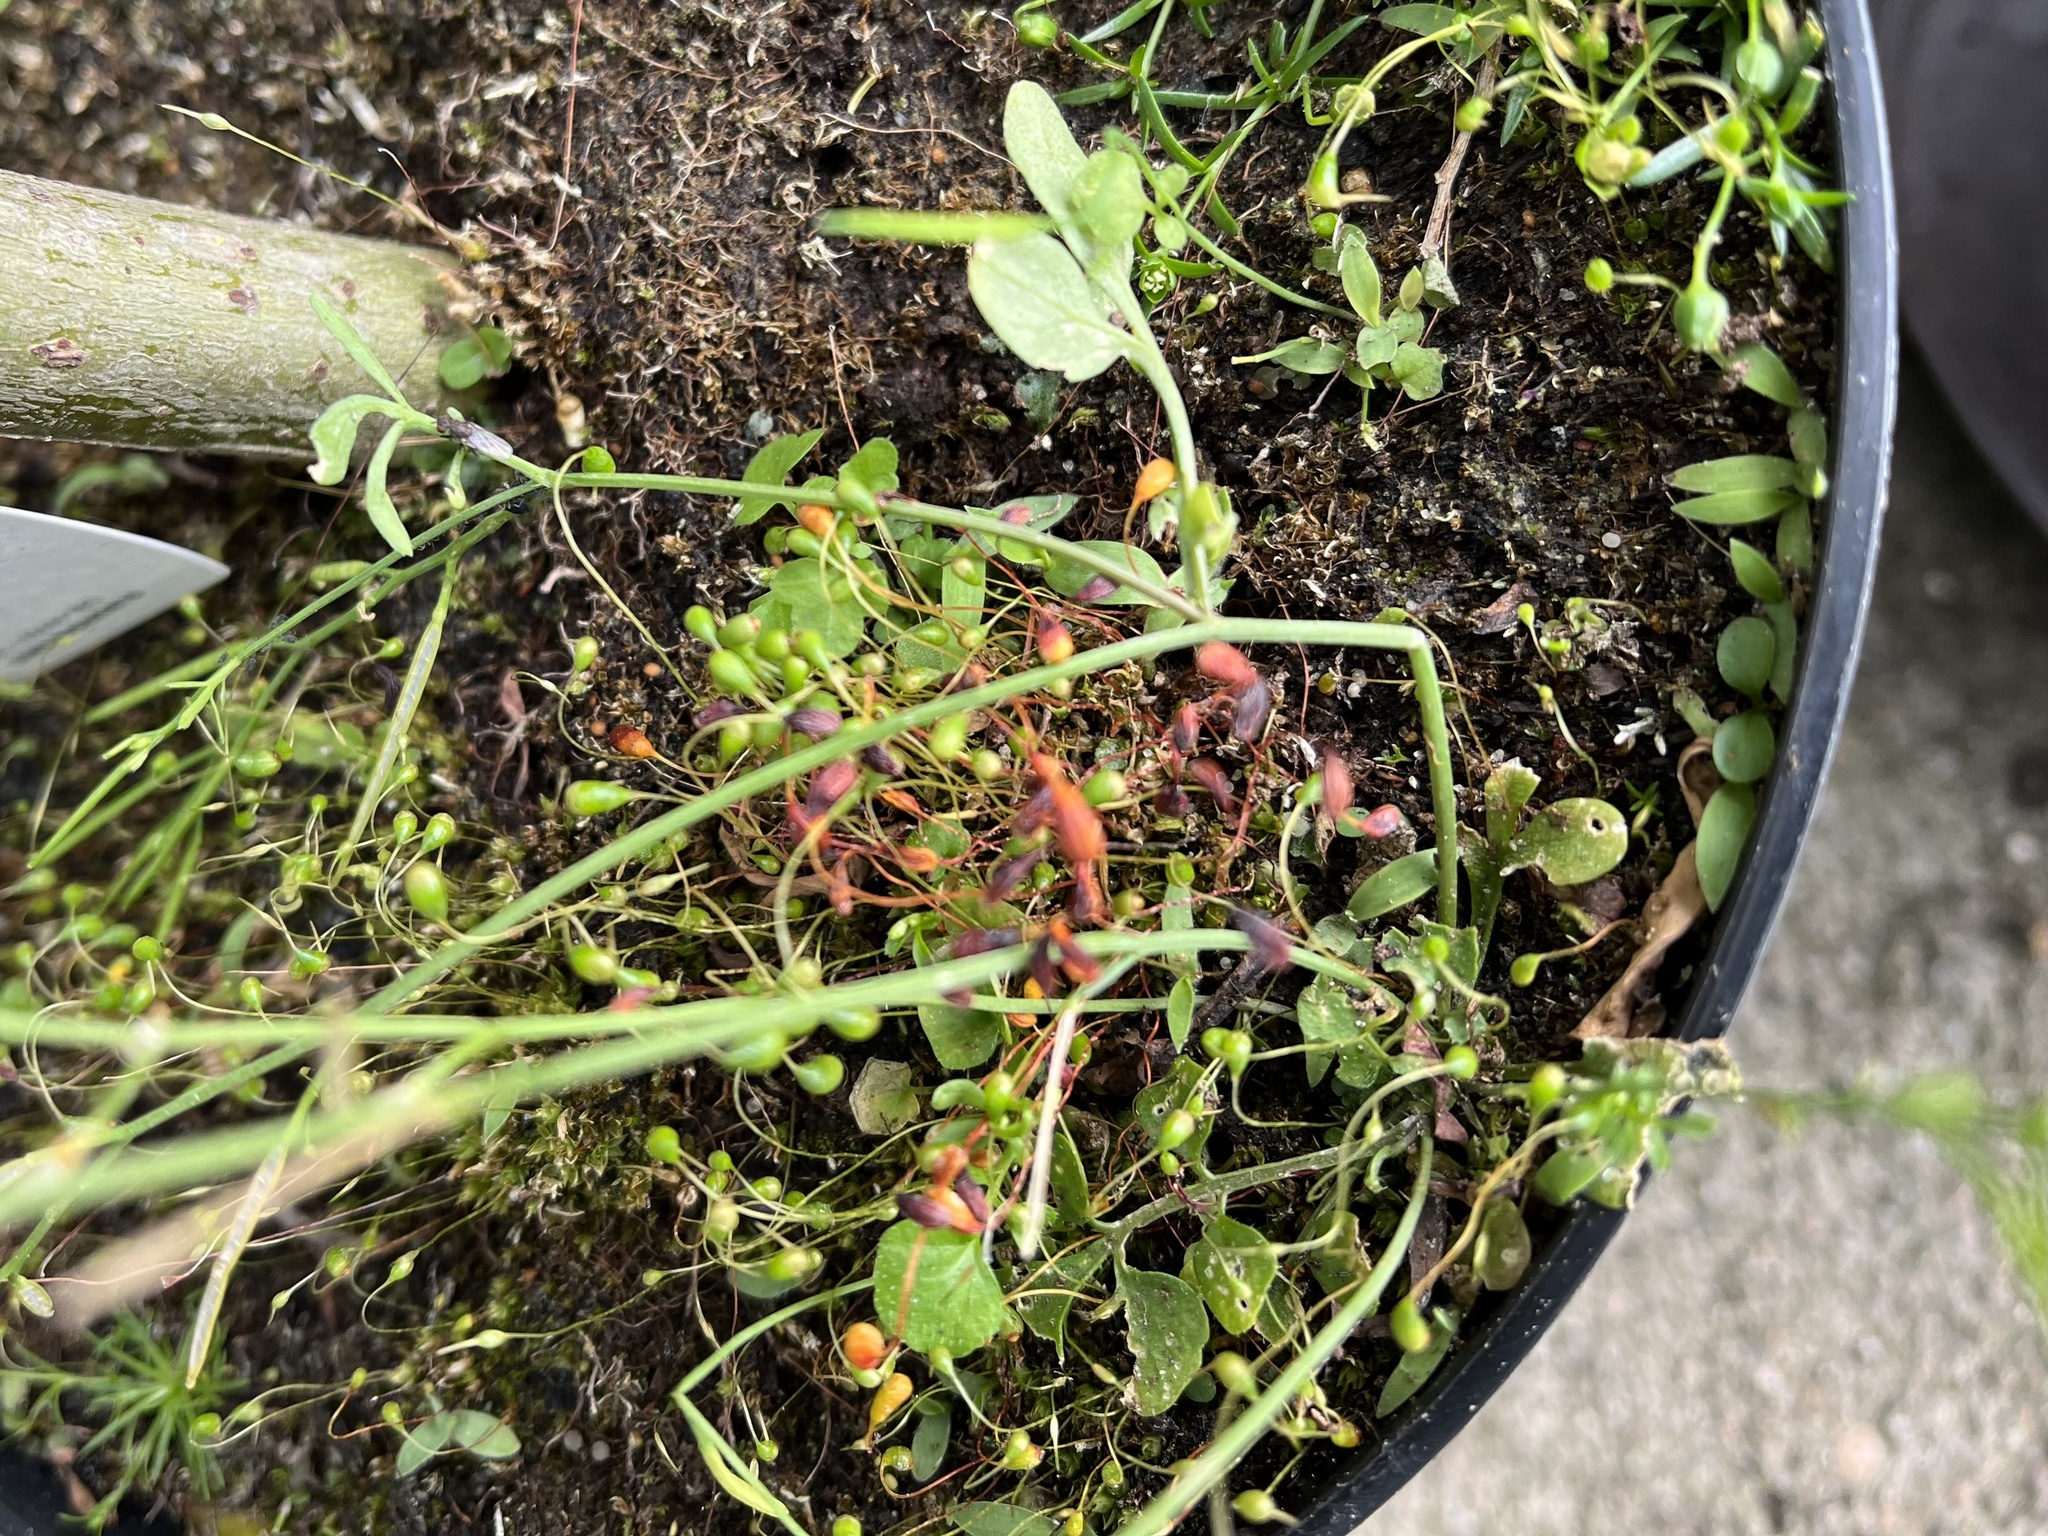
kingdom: Plantae
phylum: Tracheophyta
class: Magnoliopsida
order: Brassicales
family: Brassicaceae
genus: Cardamine
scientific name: Cardamine hirsuta
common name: Hairy bittercress
